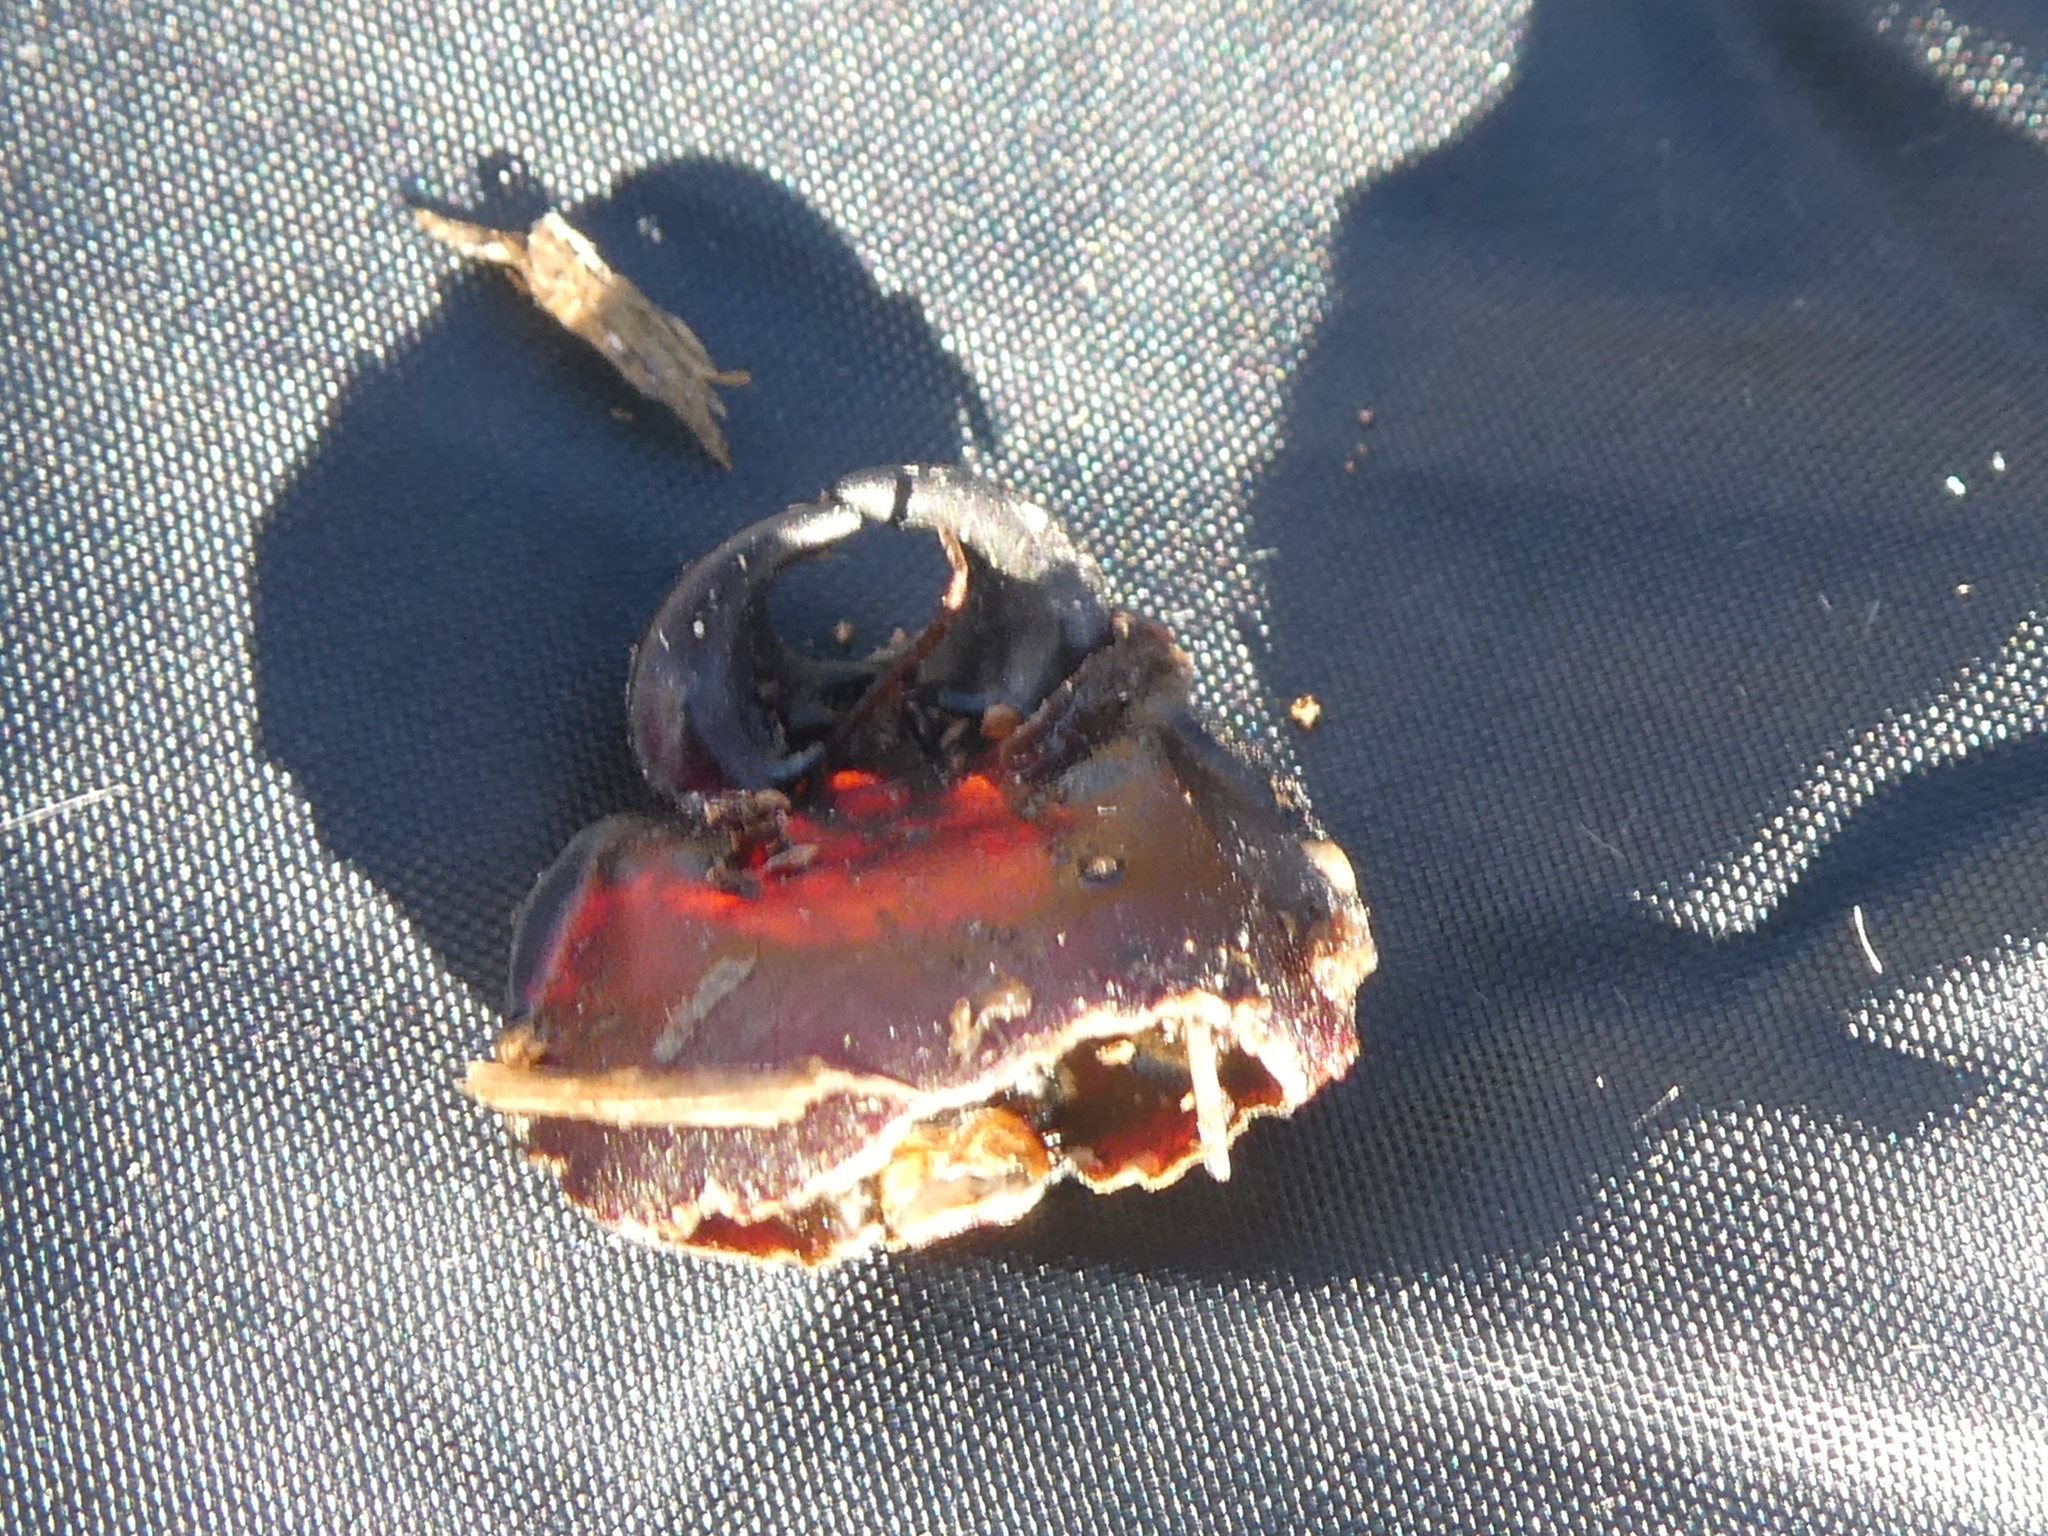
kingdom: Animalia
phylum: Arthropoda
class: Insecta
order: Coleoptera
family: Lucanidae
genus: Geodorcus
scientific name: Geodorcus helmsi
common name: Helm's stag beetle
